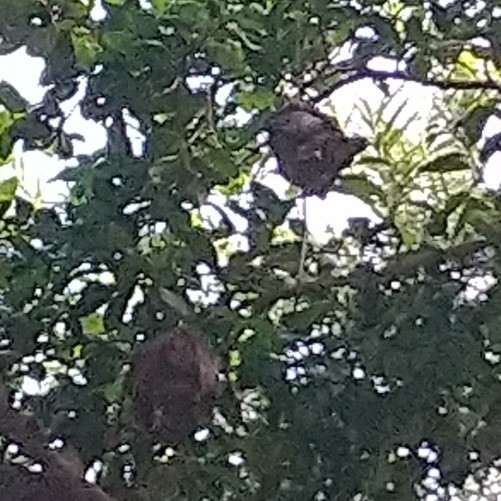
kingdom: Animalia
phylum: Chordata
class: Mammalia
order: Chiroptera
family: Pteropodidae
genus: Epomophorus
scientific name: Epomophorus wahlbergi
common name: Wahlberg's epauletted fruit bat
